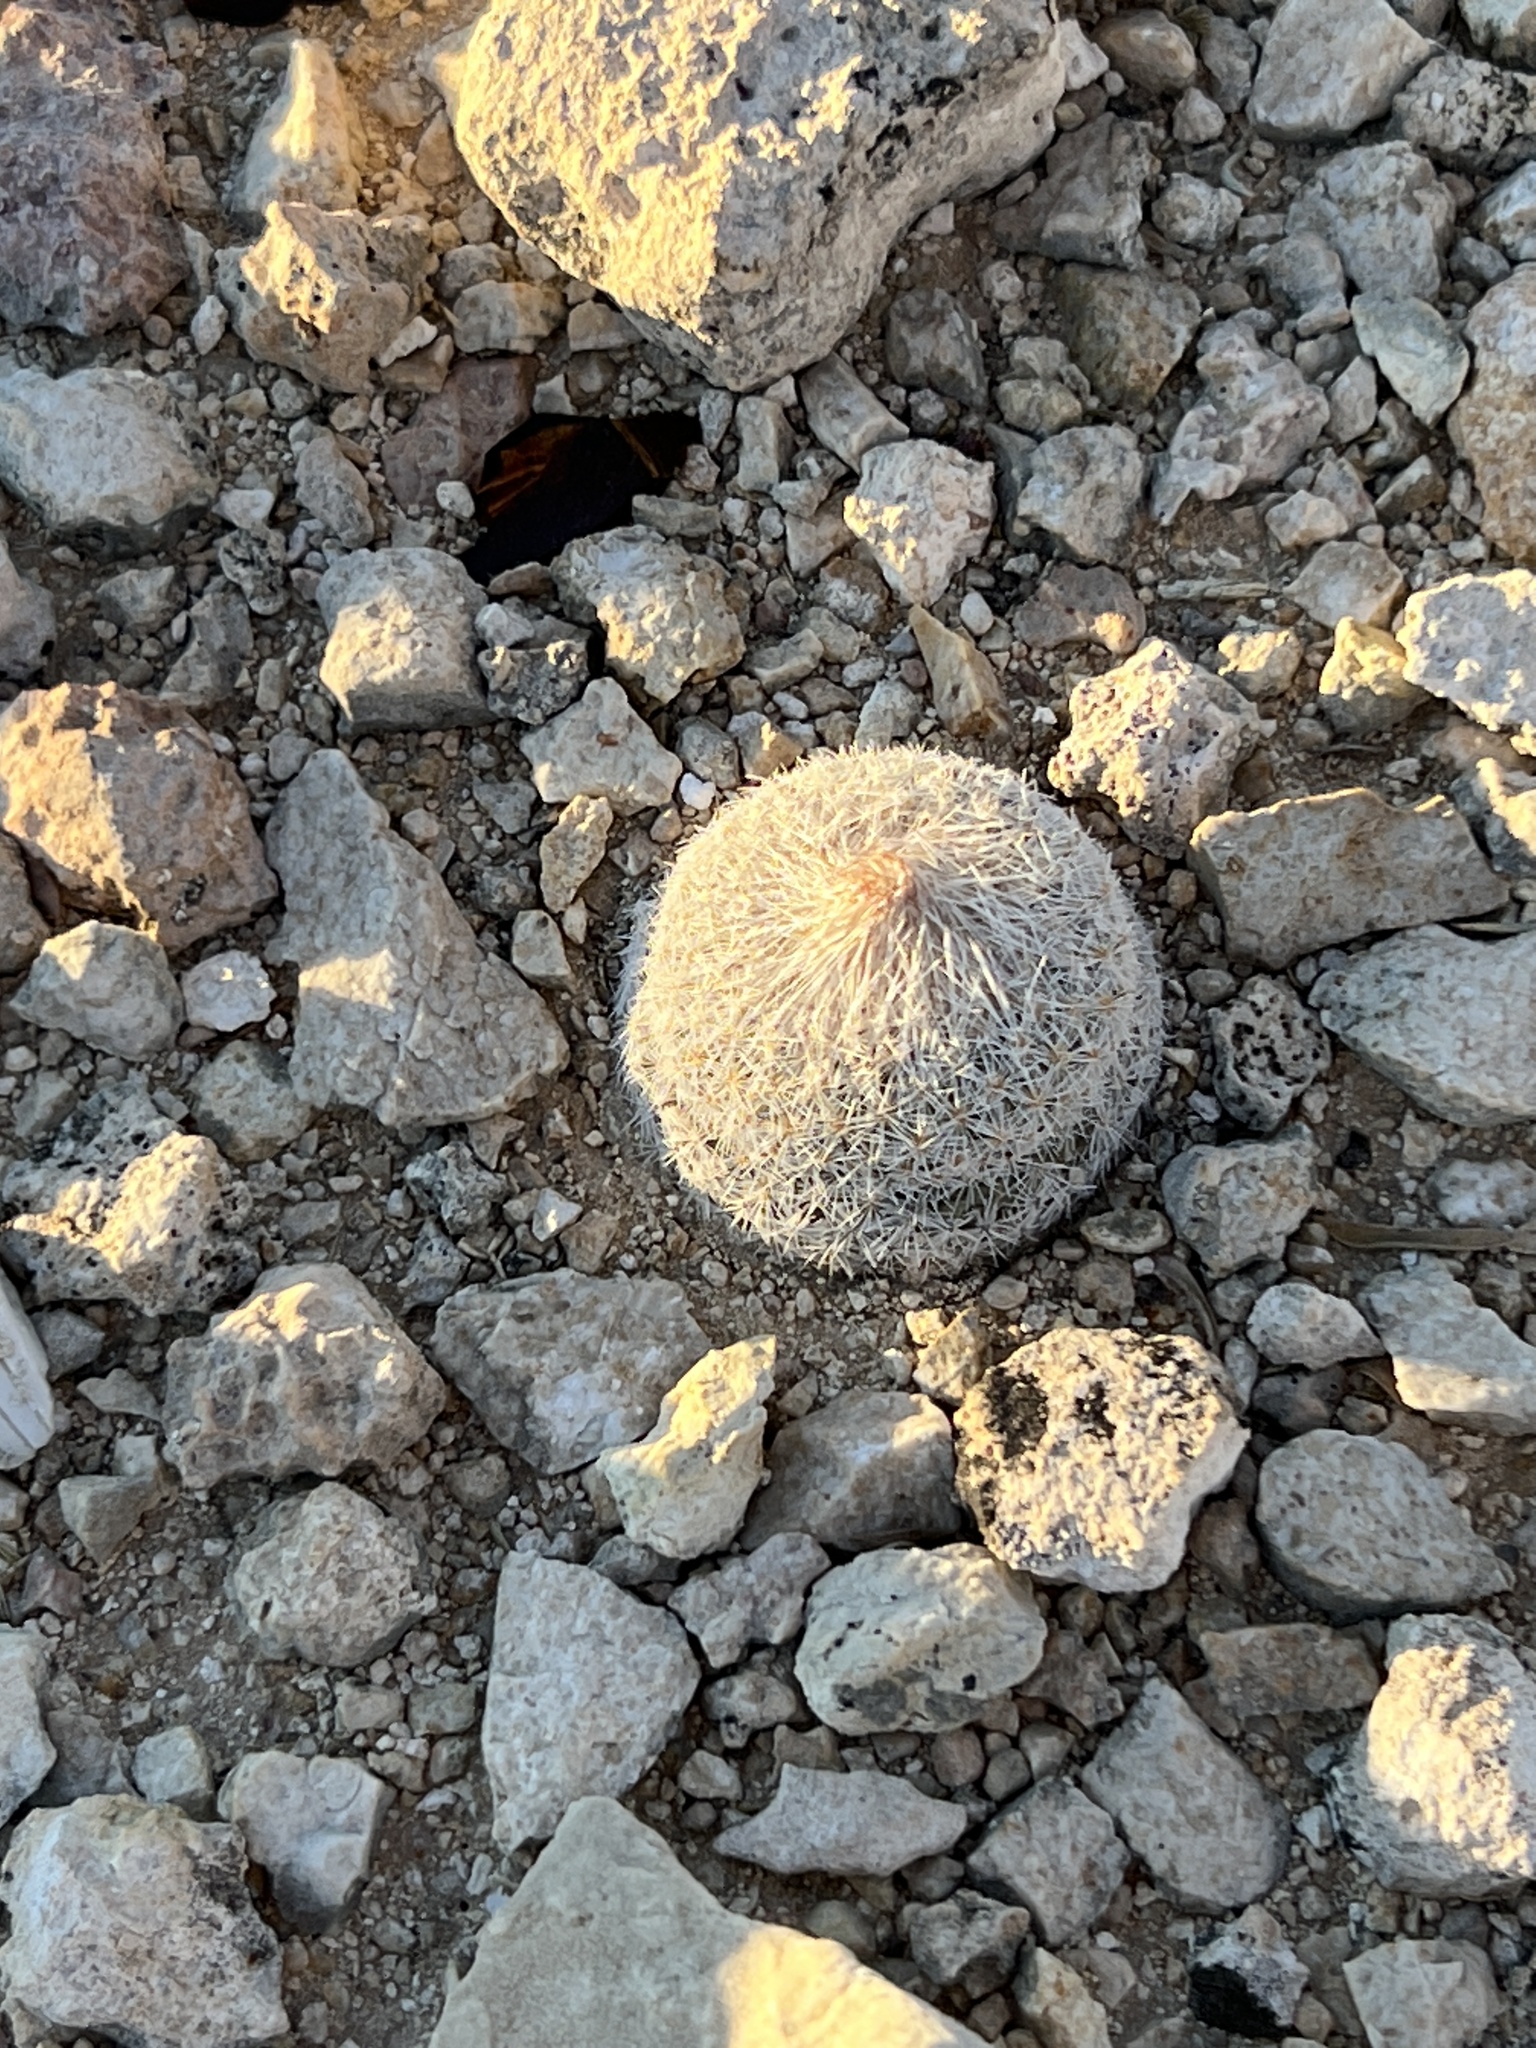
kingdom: Plantae
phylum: Tracheophyta
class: Magnoliopsida
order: Caryophyllales
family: Cactaceae
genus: Epithelantha
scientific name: Epithelantha micromeris
